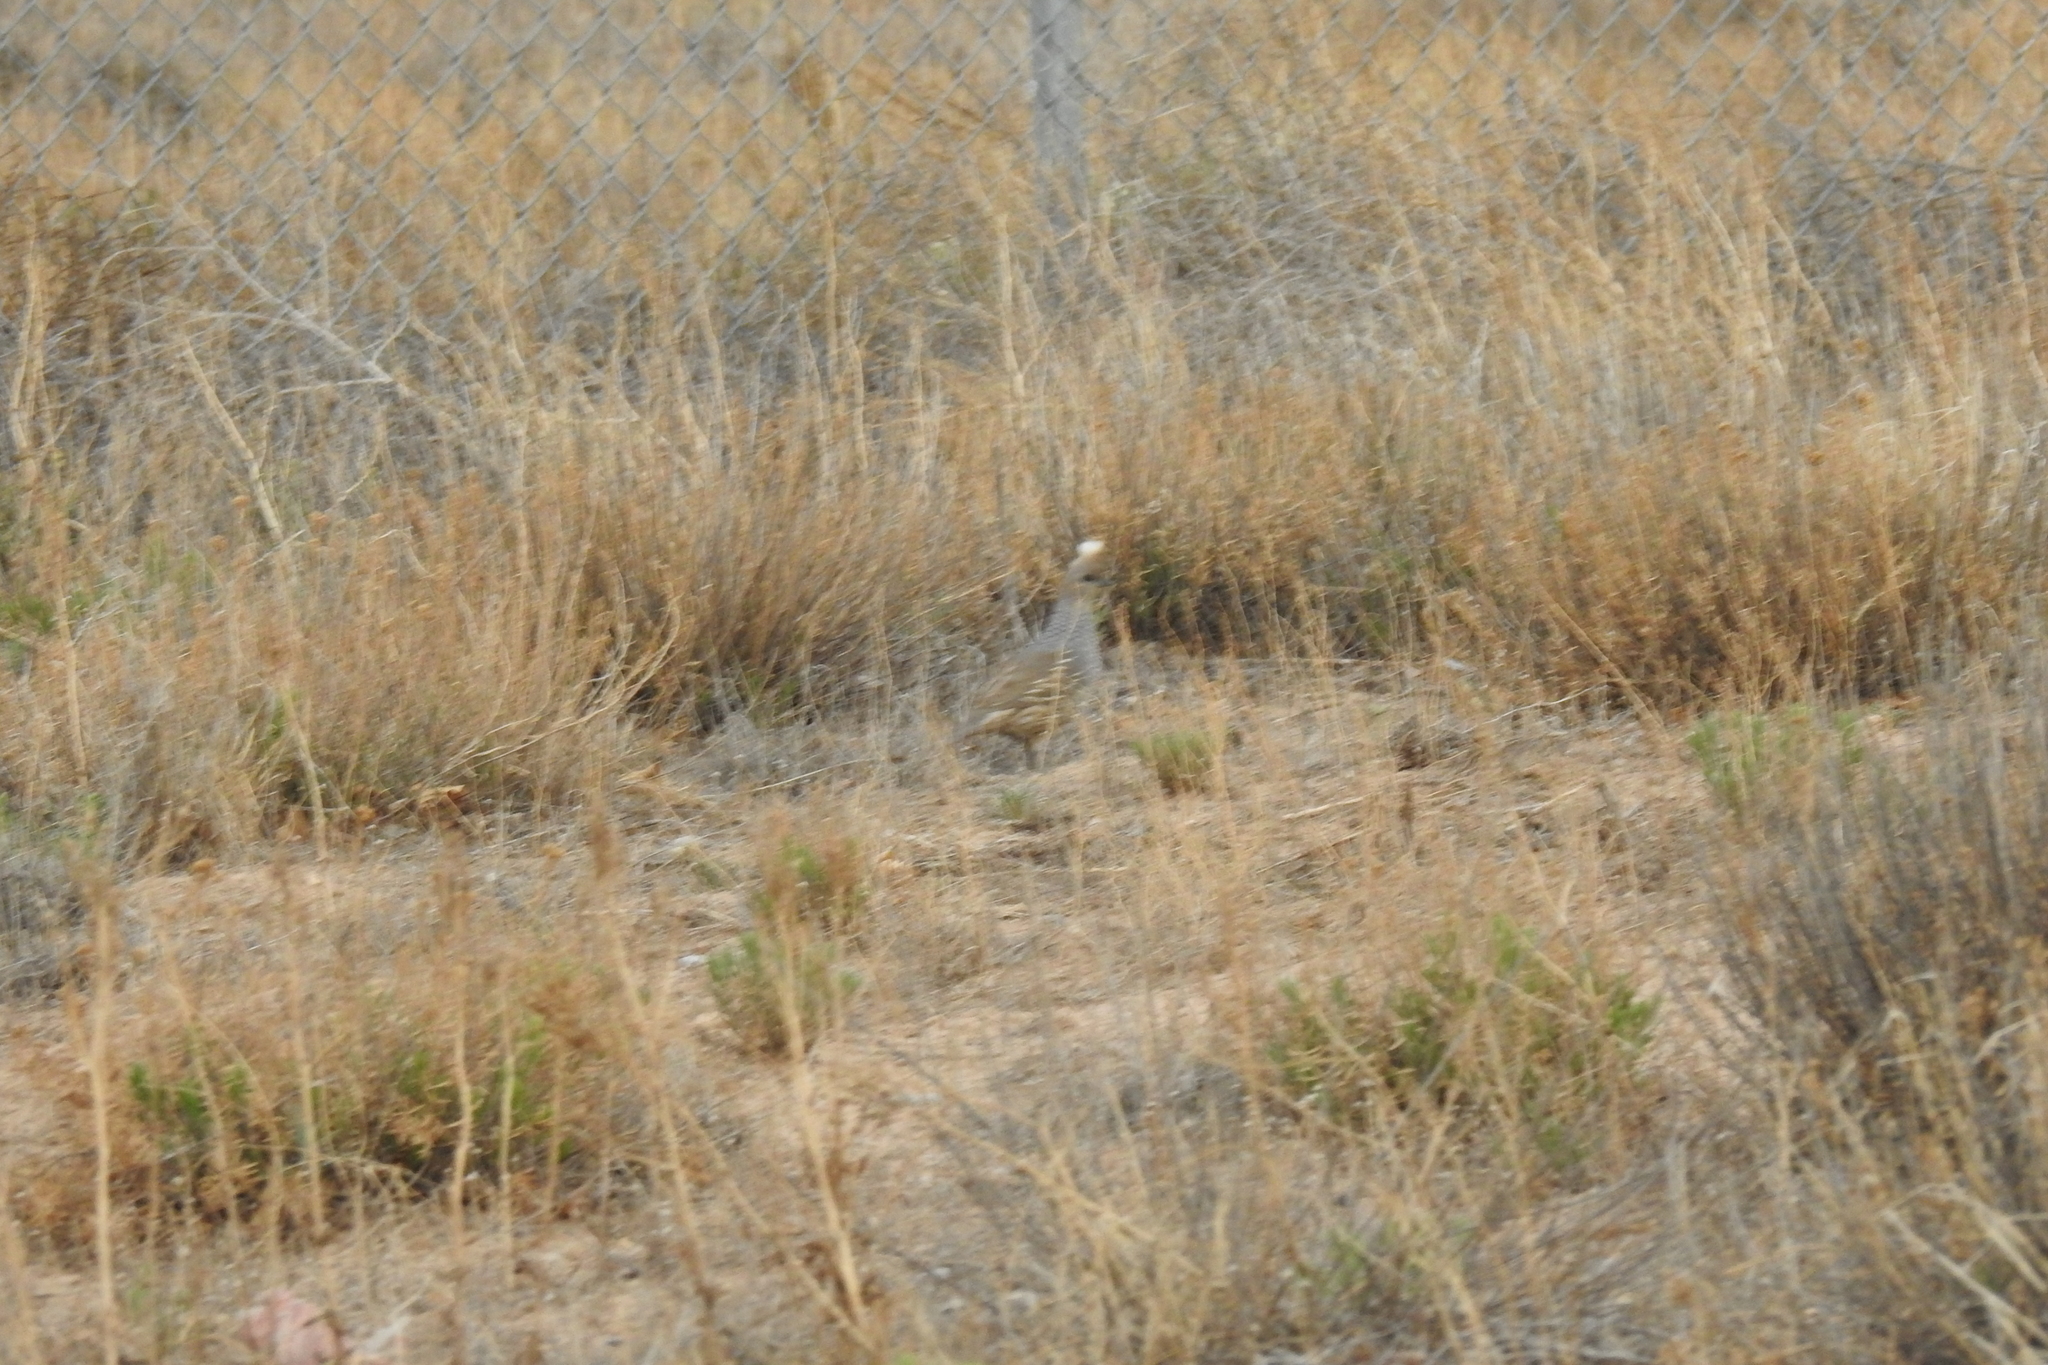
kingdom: Animalia
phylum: Chordata
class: Aves
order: Galliformes
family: Odontophoridae
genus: Callipepla
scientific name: Callipepla squamata
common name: Scaled quail
